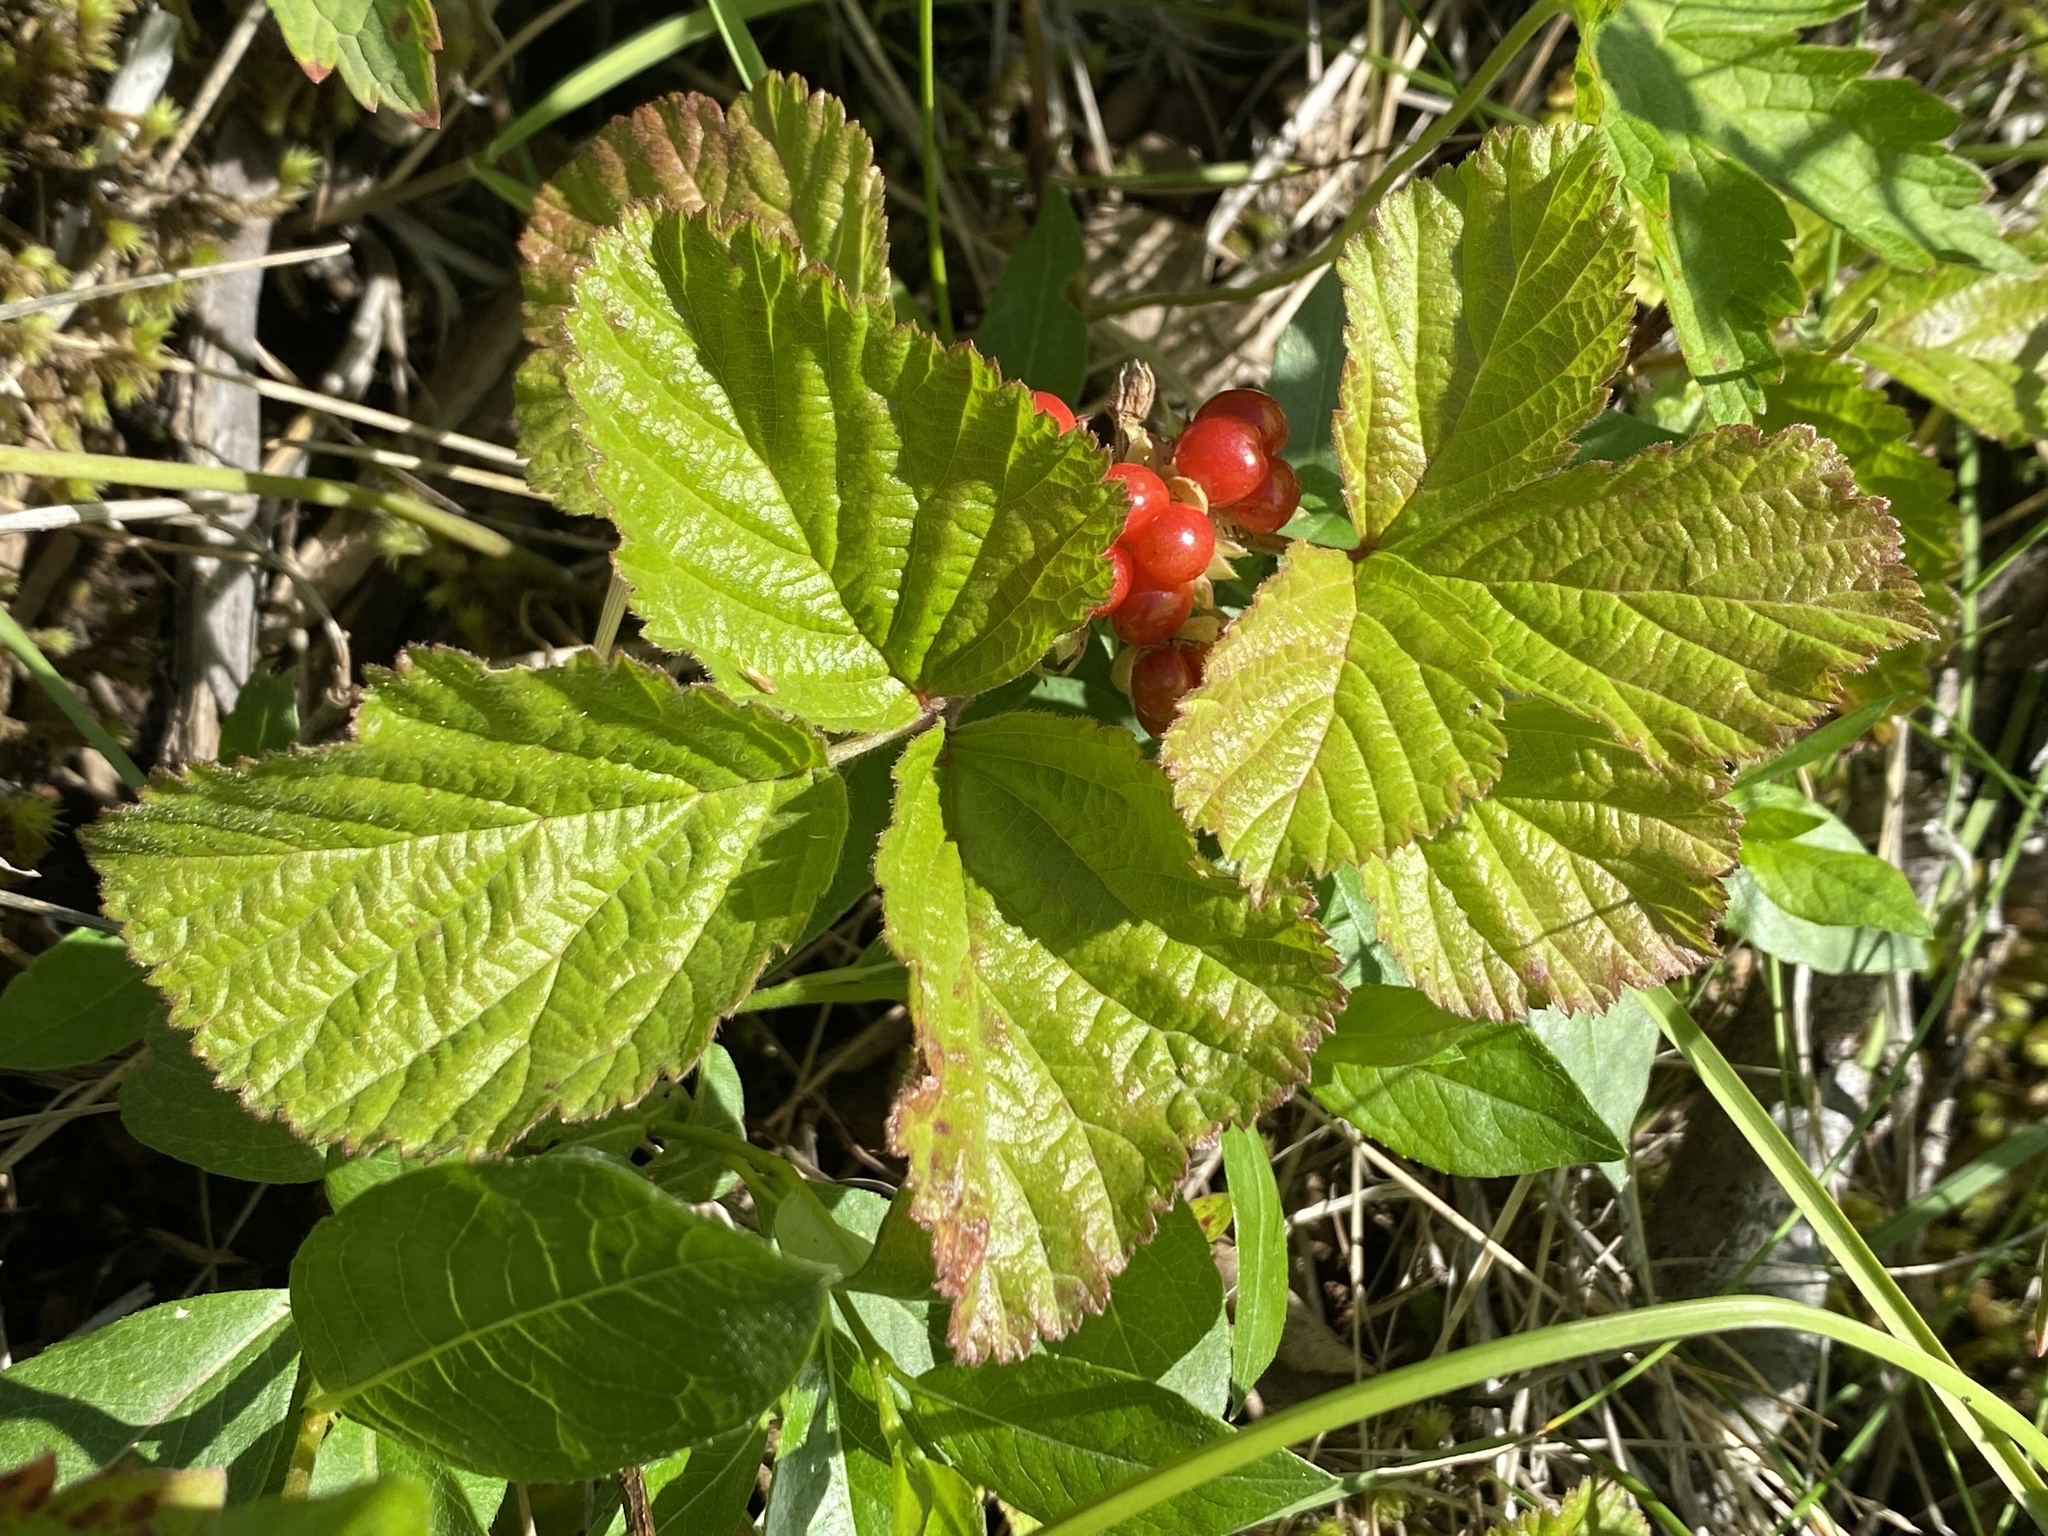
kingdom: Plantae
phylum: Tracheophyta
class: Magnoliopsida
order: Rosales
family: Rosaceae
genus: Rubus
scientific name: Rubus saxatilis
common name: Stone bramble
